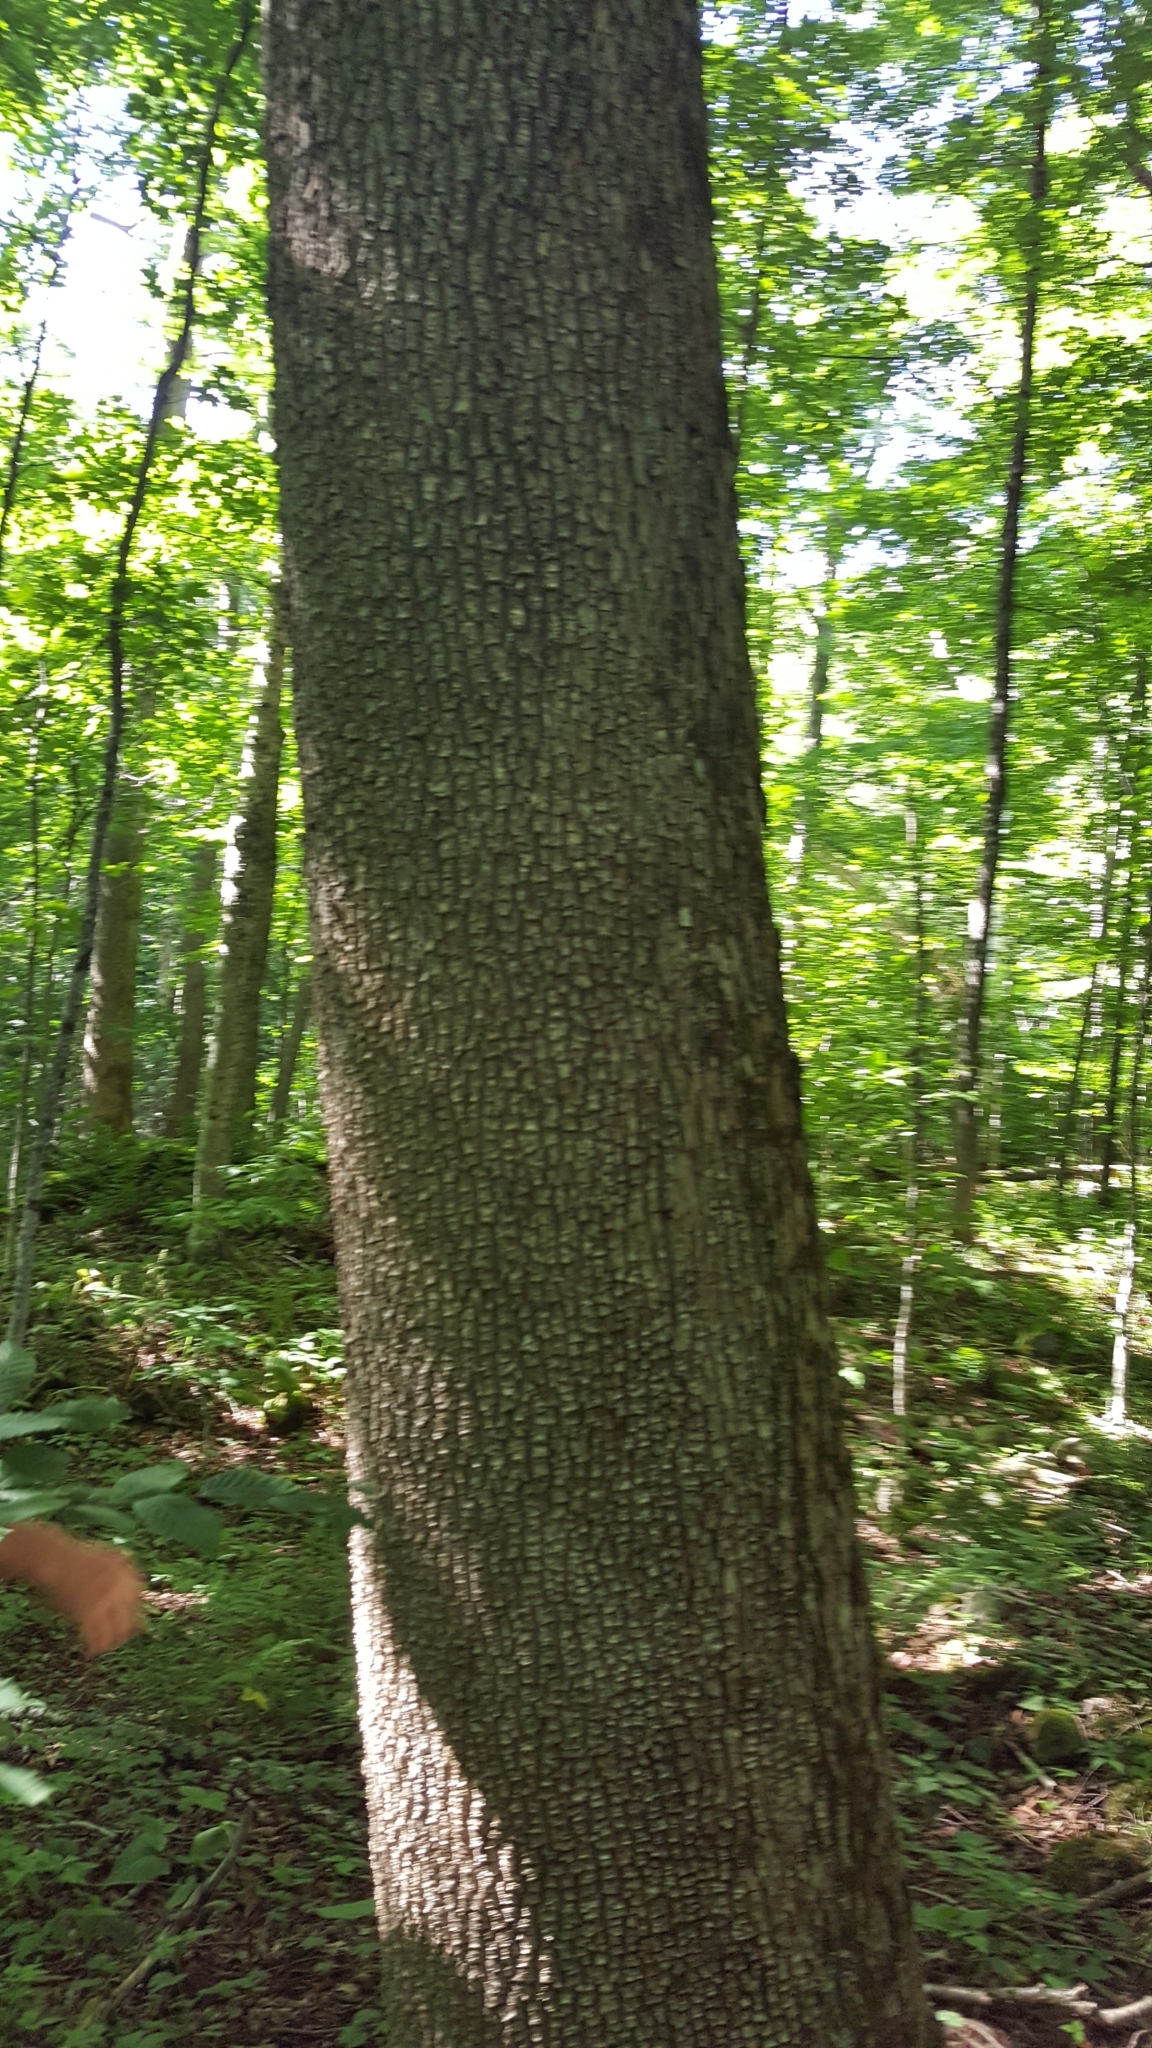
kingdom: Plantae
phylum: Tracheophyta
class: Magnoliopsida
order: Lamiales
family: Oleaceae
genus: Fraxinus
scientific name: Fraxinus americana
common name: White ash
